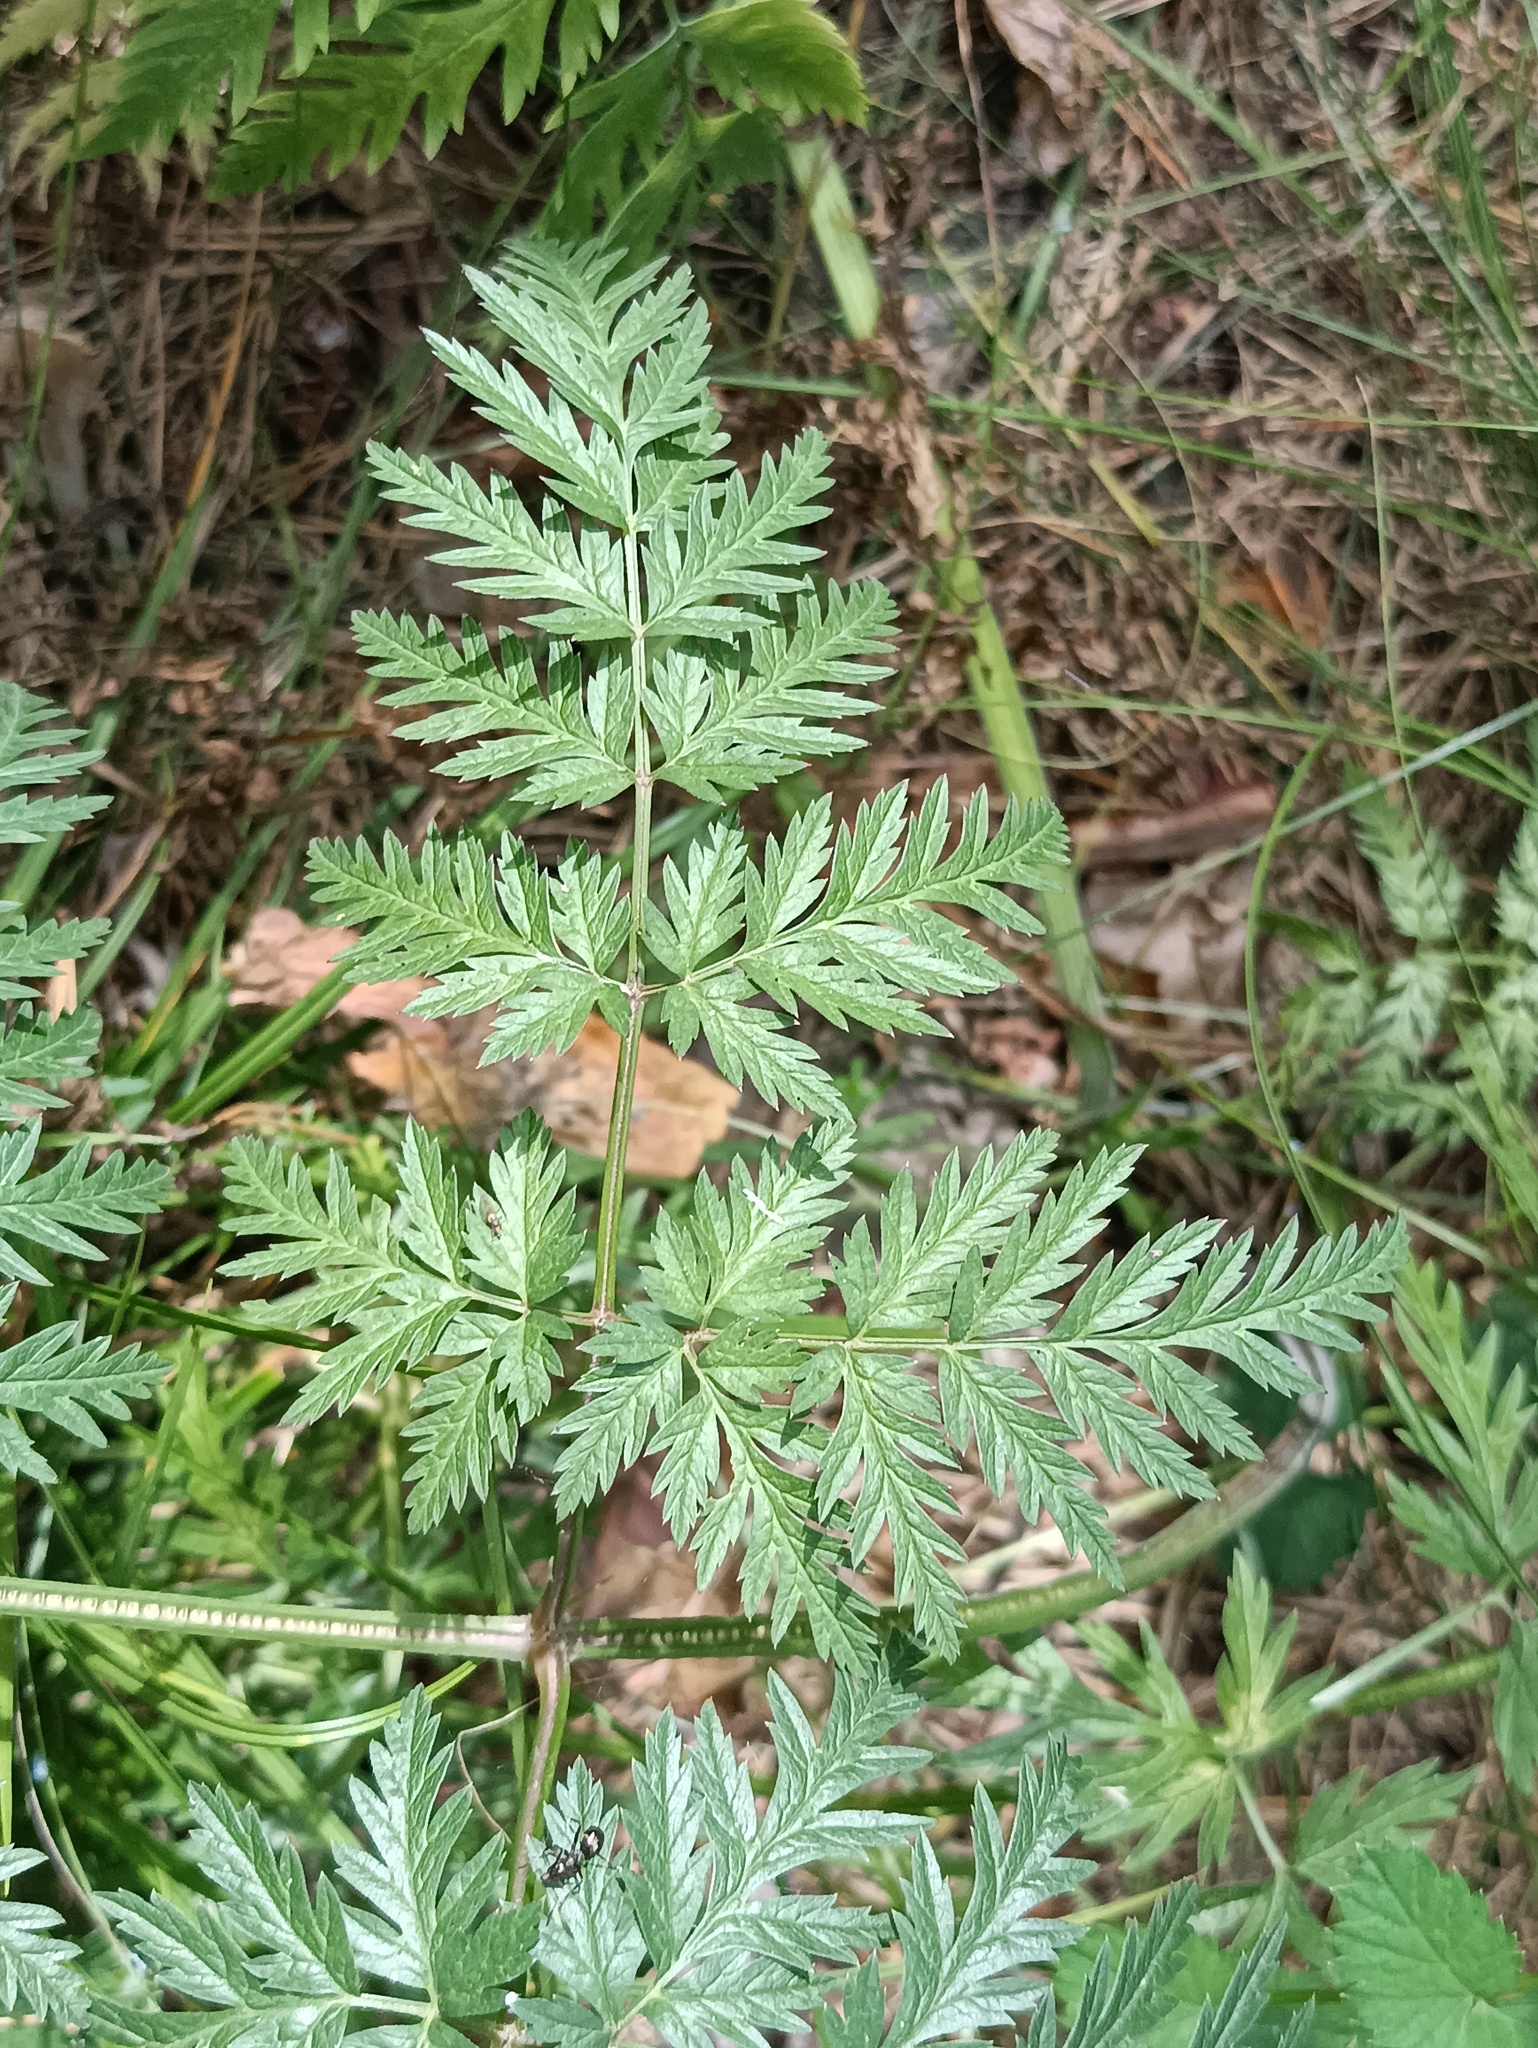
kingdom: Plantae
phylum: Tracheophyta
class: Magnoliopsida
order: Apiales
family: Apiaceae
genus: Anthriscus
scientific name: Anthriscus sylvestris
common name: Cow parsley
